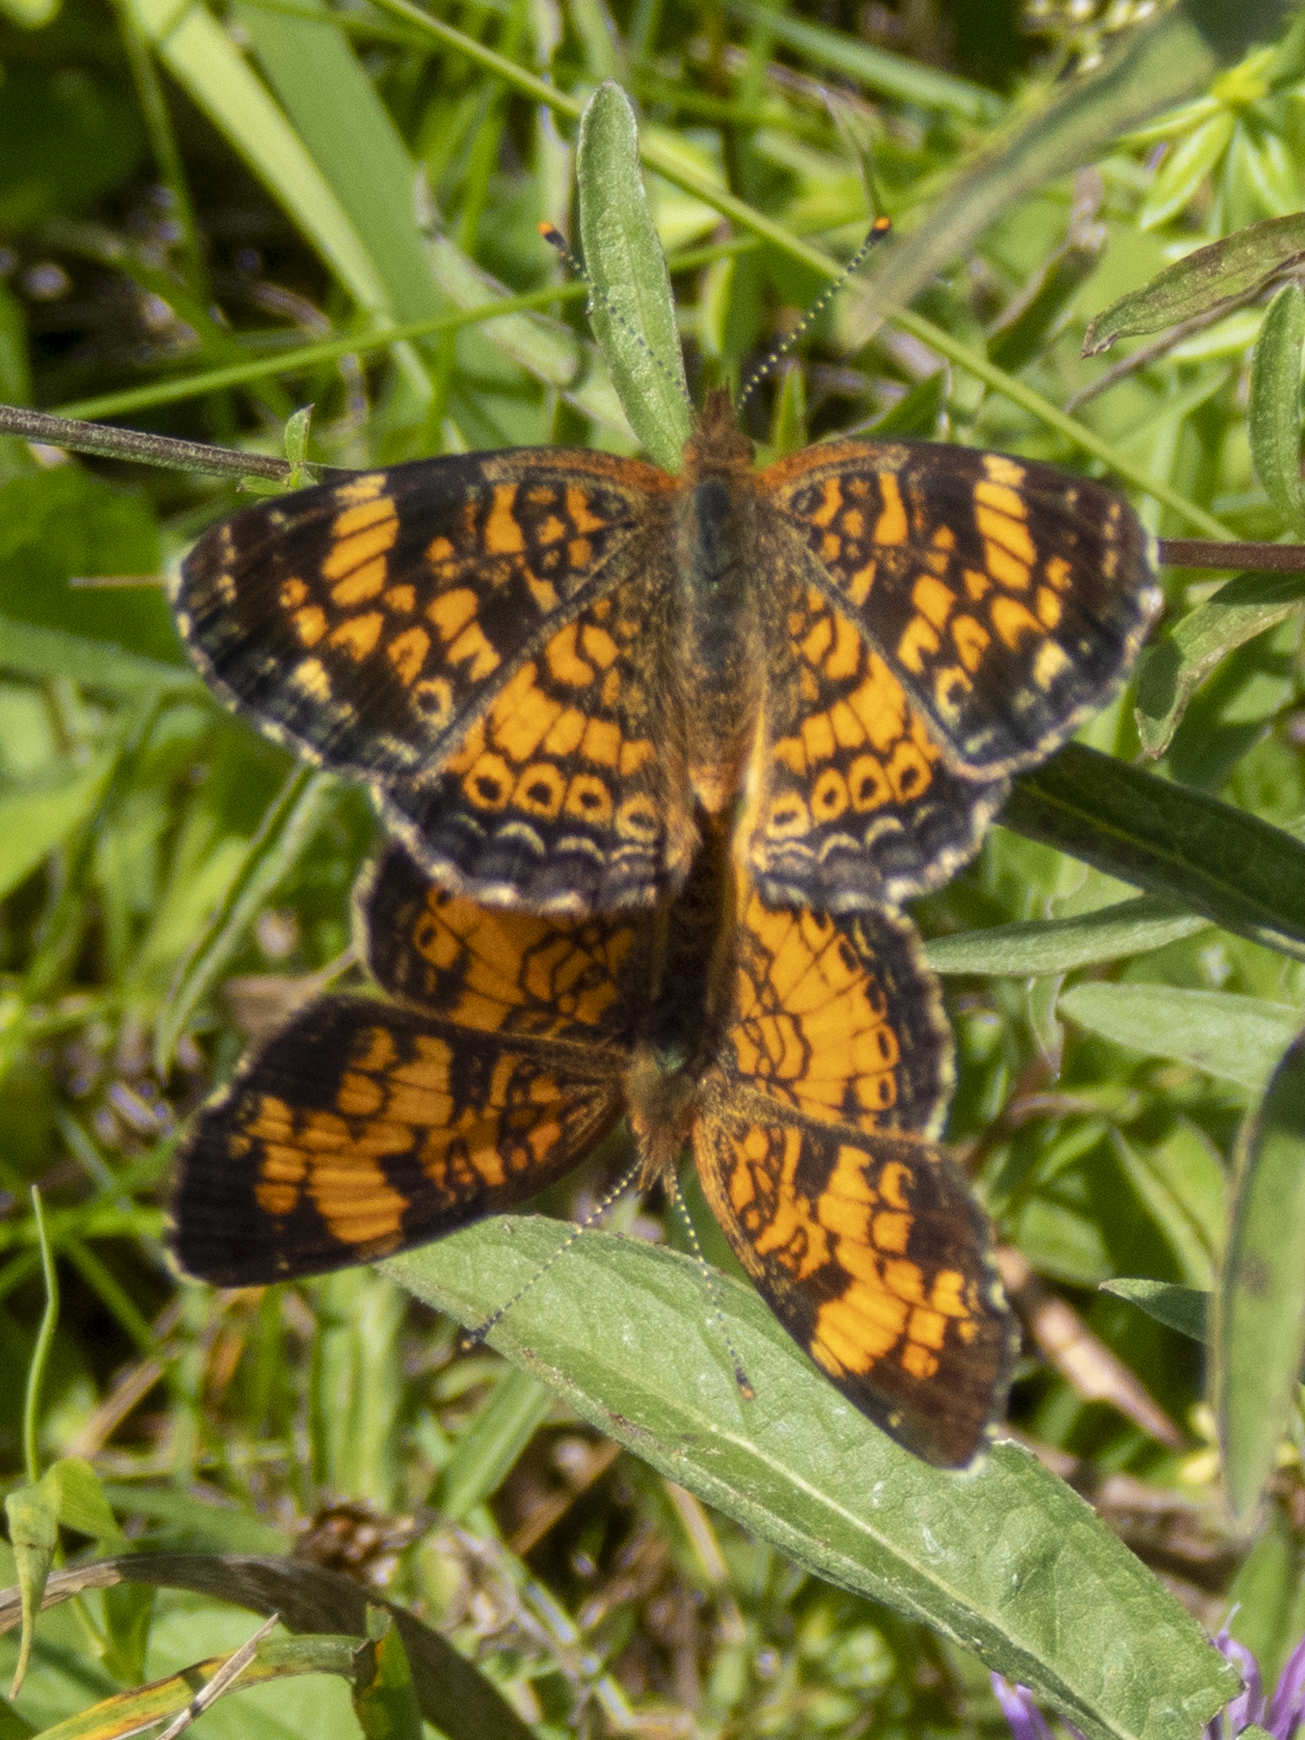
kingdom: Animalia
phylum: Arthropoda
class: Insecta
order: Lepidoptera
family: Nymphalidae
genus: Phyciodes
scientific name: Phyciodes tharos
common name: Pearl crescent
